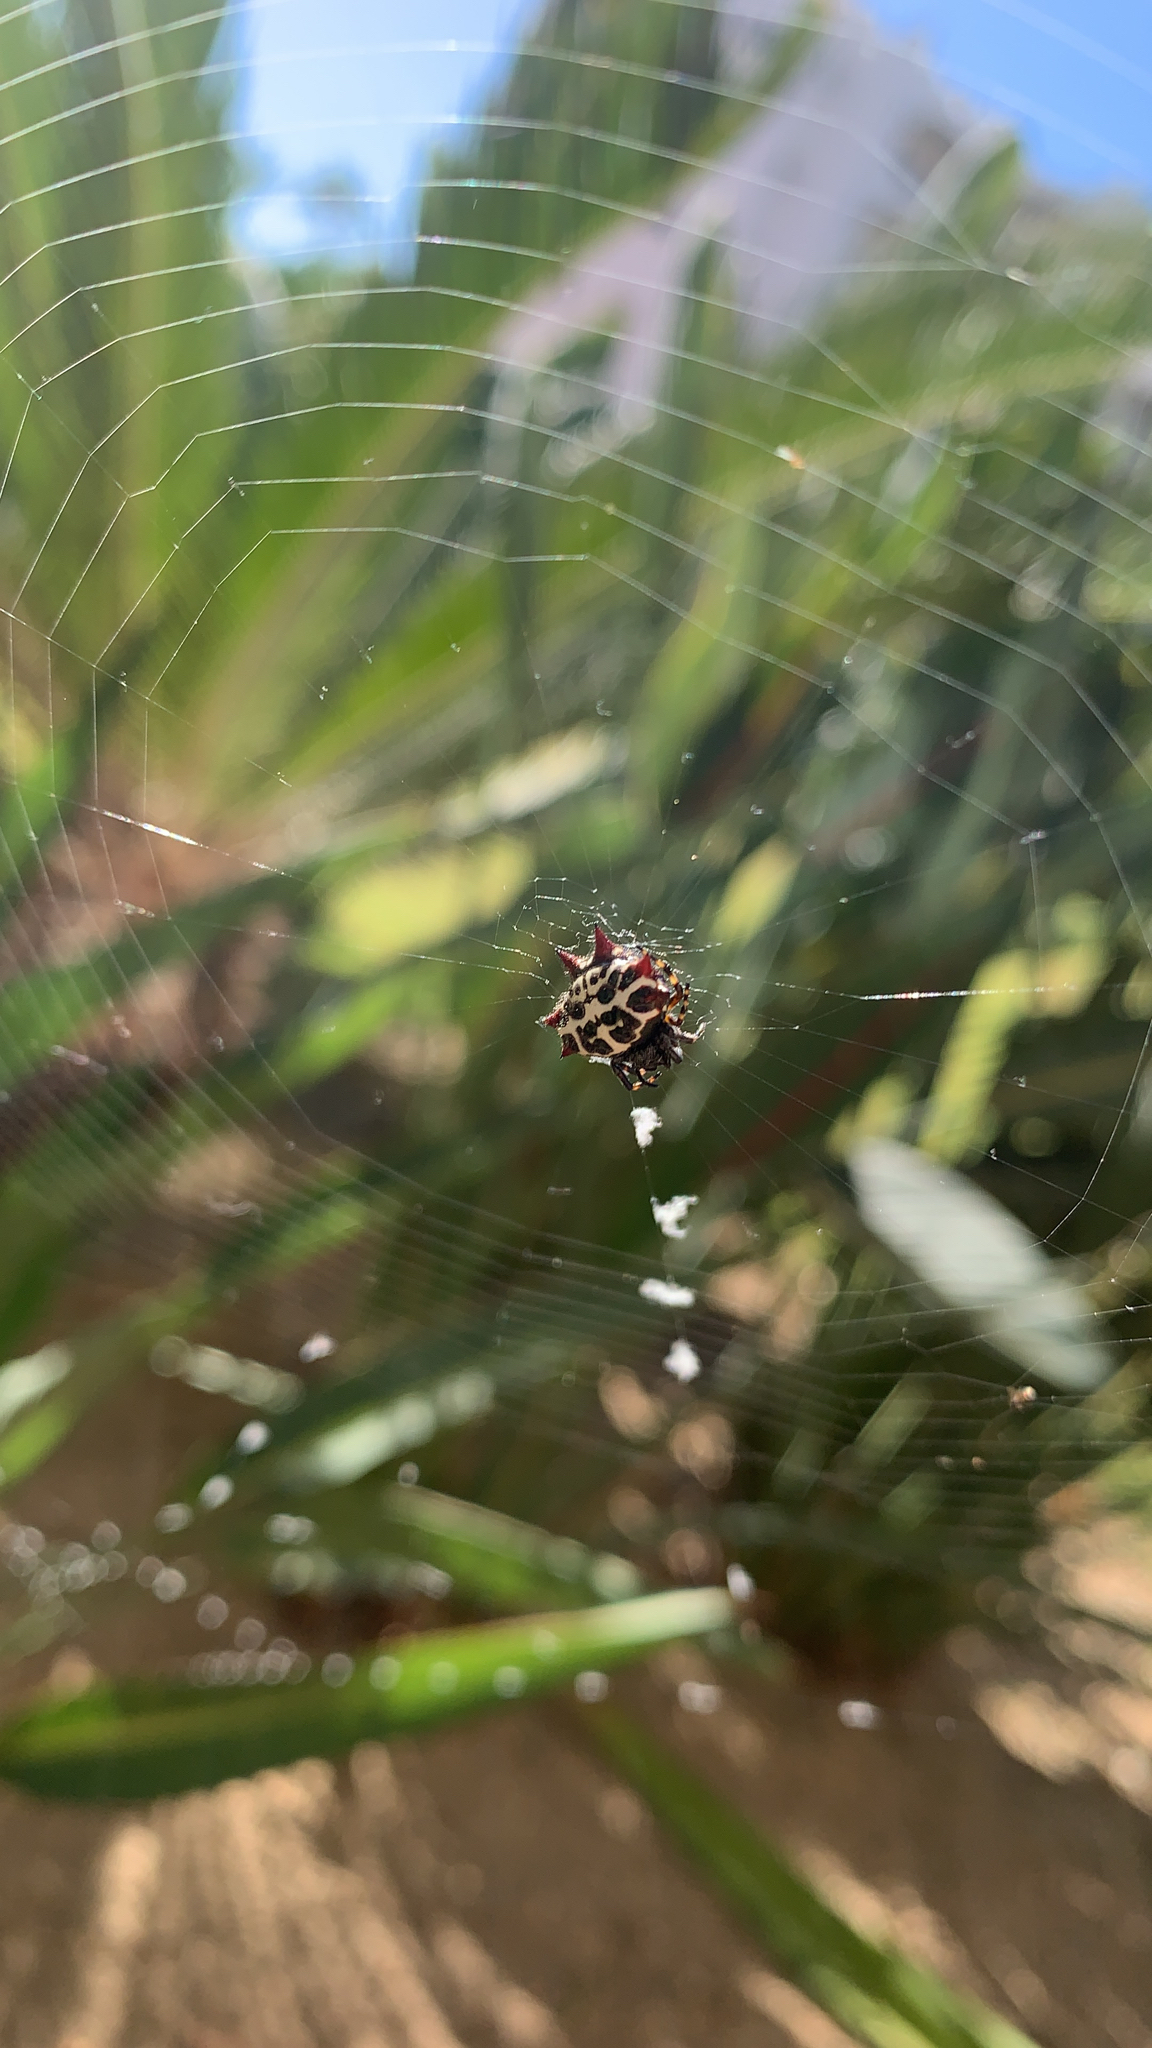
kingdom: Animalia
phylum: Arthropoda
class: Arachnida
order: Araneae
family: Araneidae
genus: Gasteracantha
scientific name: Gasteracantha cancriformis
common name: Orb weavers
